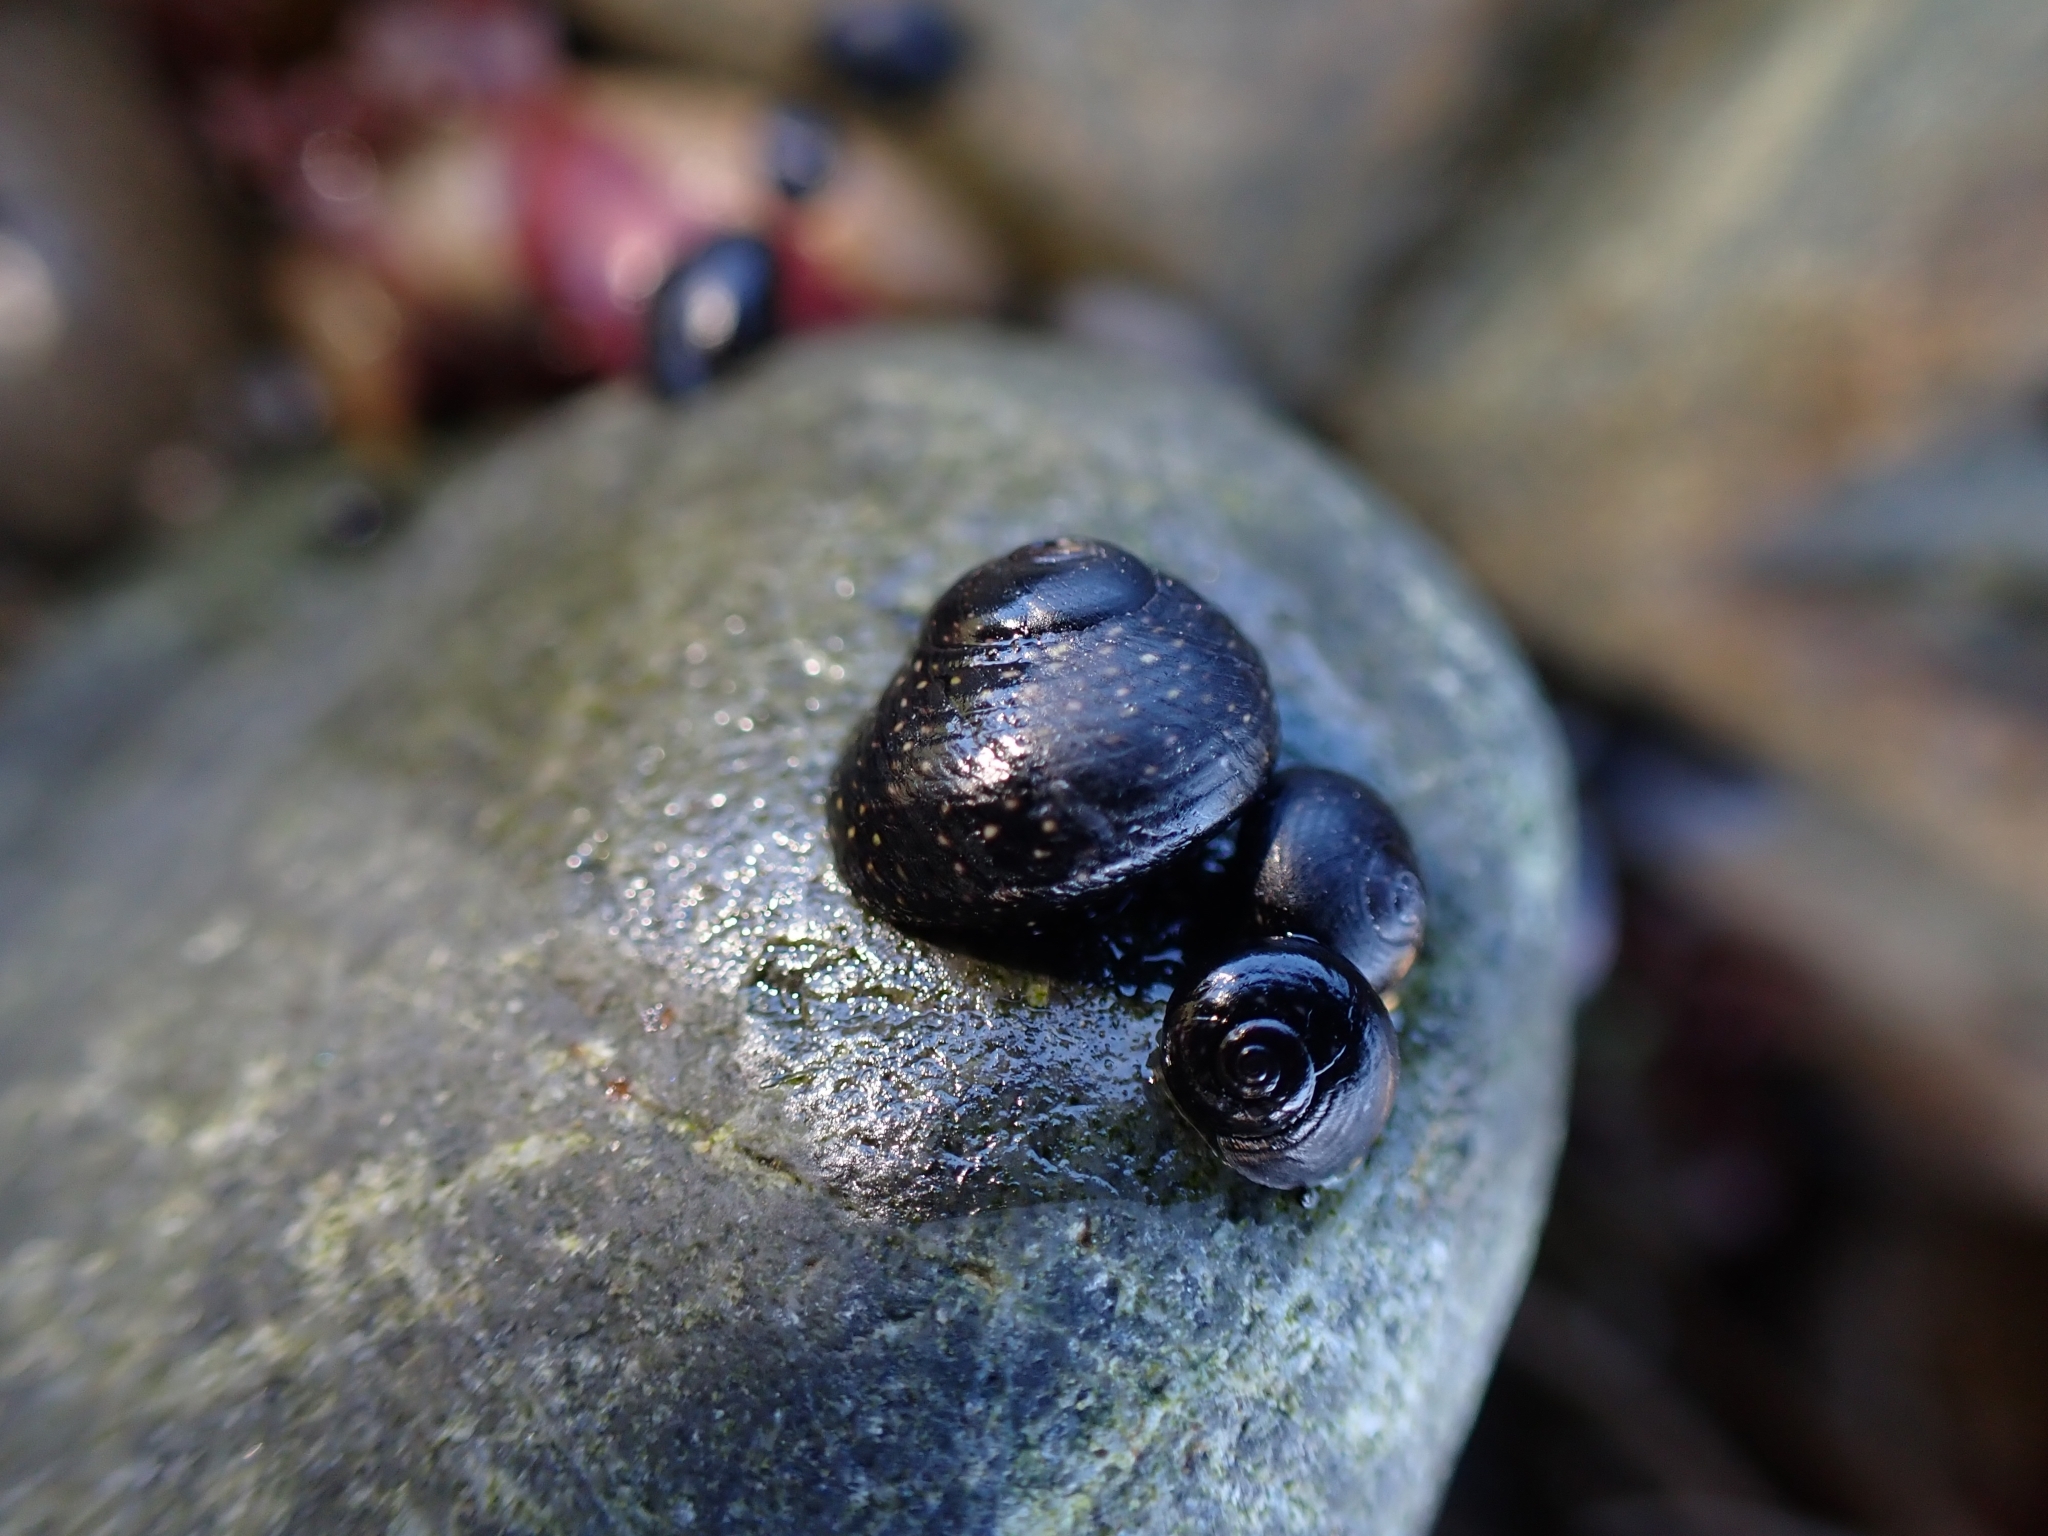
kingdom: Animalia
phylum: Mollusca
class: Gastropoda
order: Trochida
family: Trochidae
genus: Diloma
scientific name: Diloma aridum
